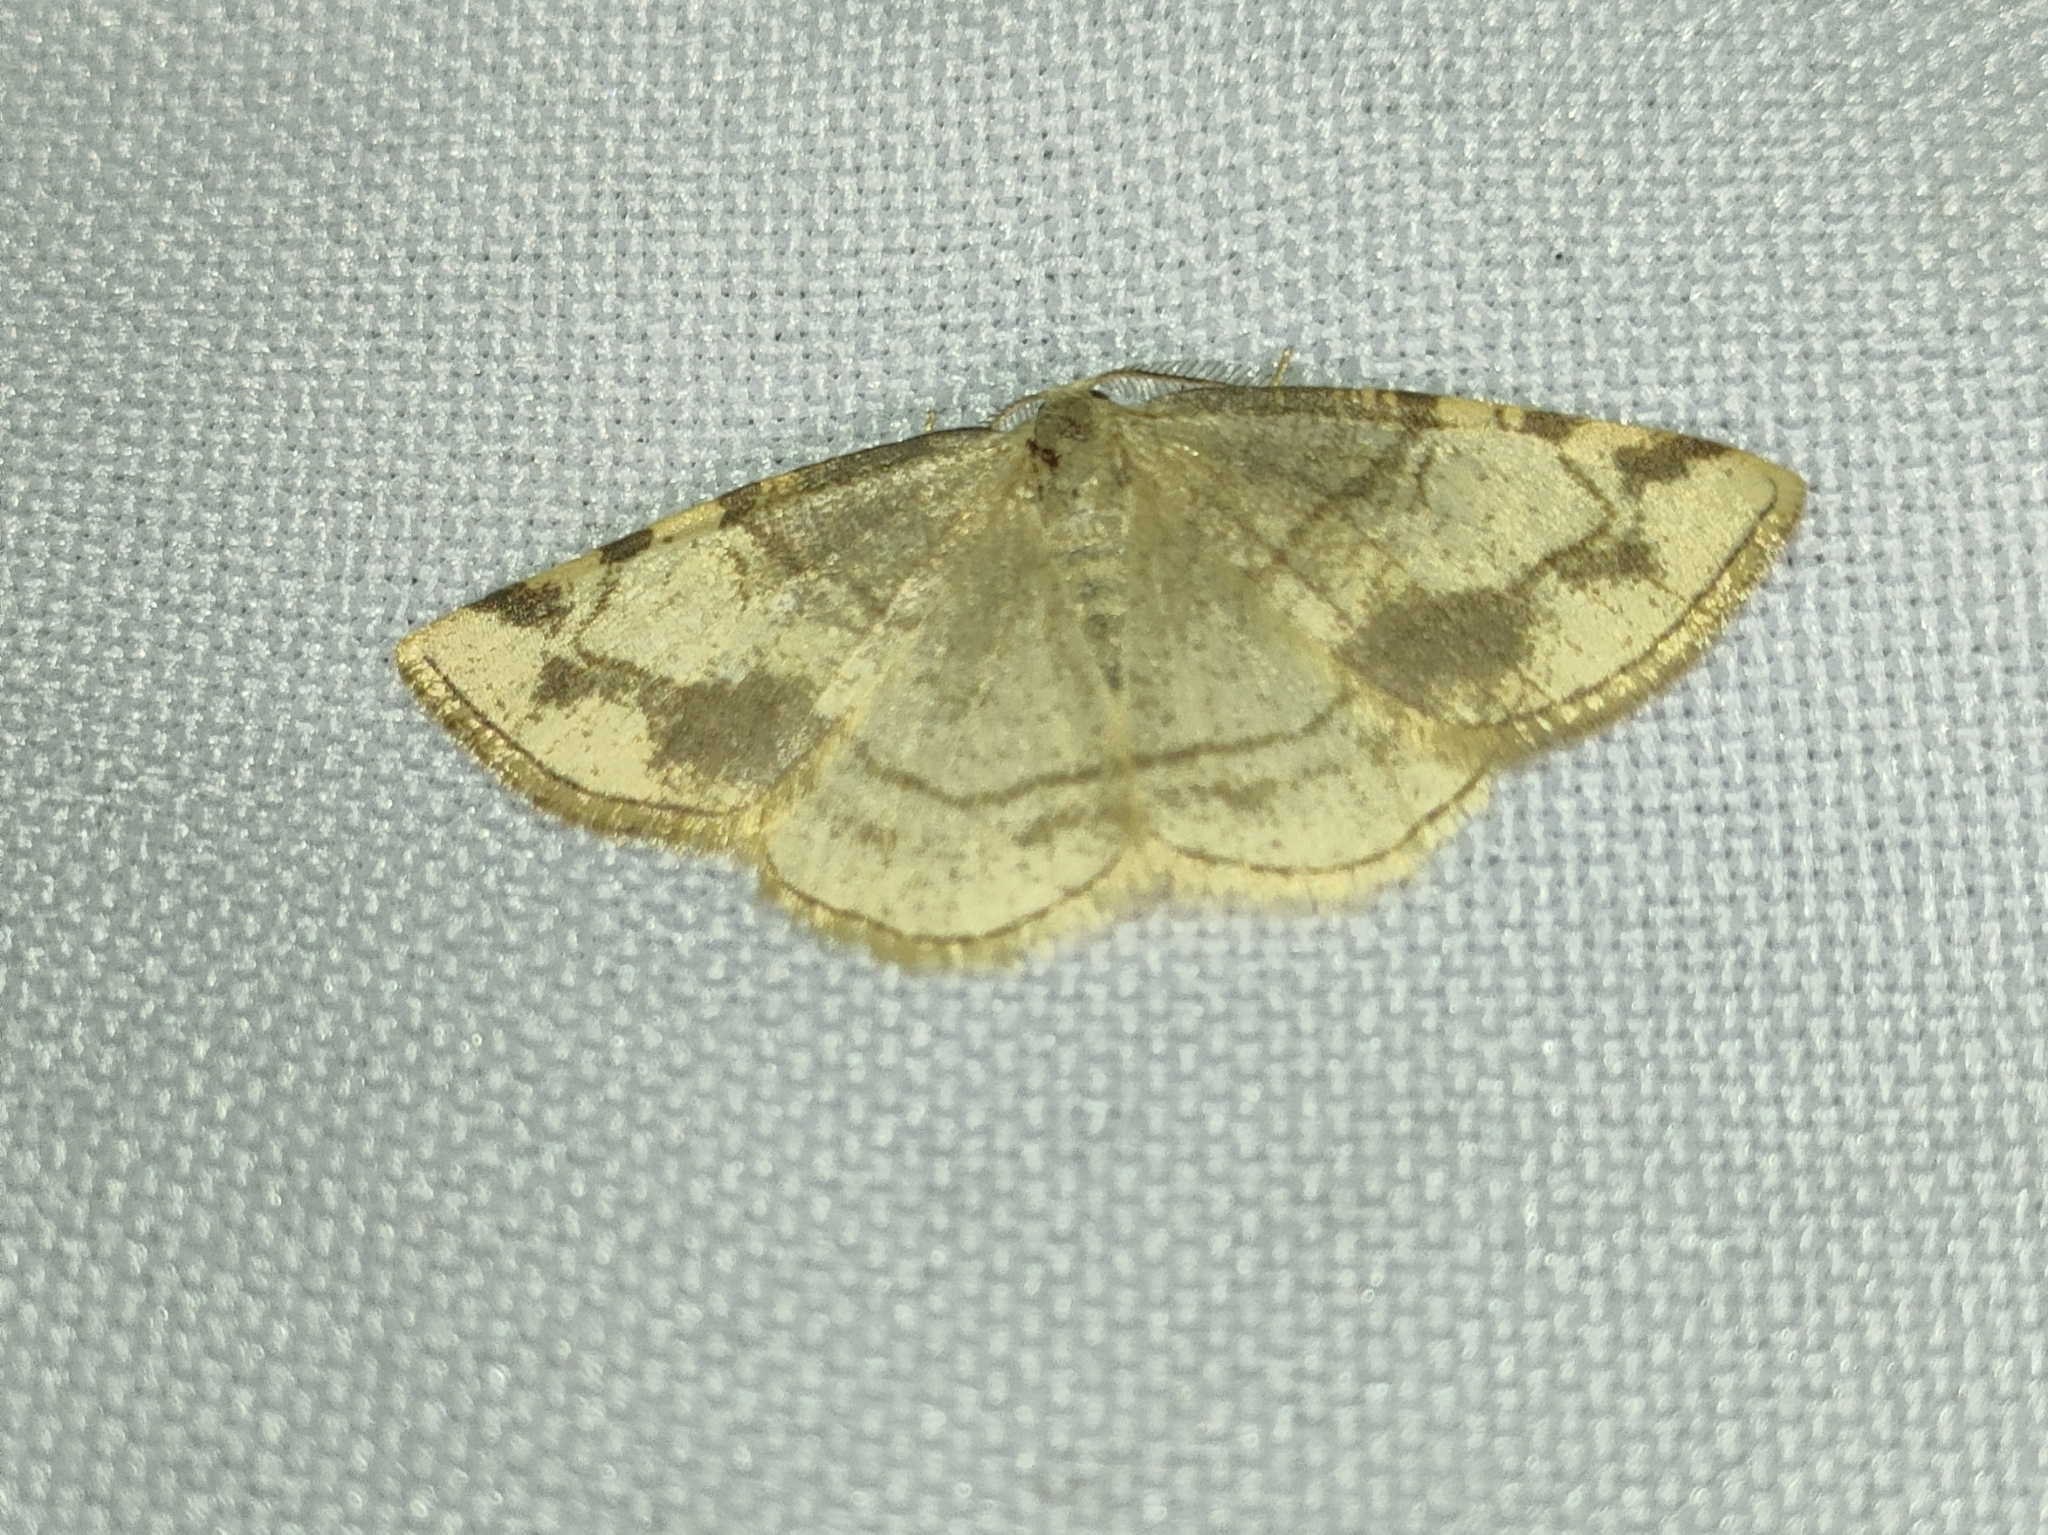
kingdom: Animalia
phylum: Arthropoda
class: Insecta
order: Lepidoptera
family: Geometridae
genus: Stegania
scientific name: Stegania trimaculata
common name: Dorset cream wave
